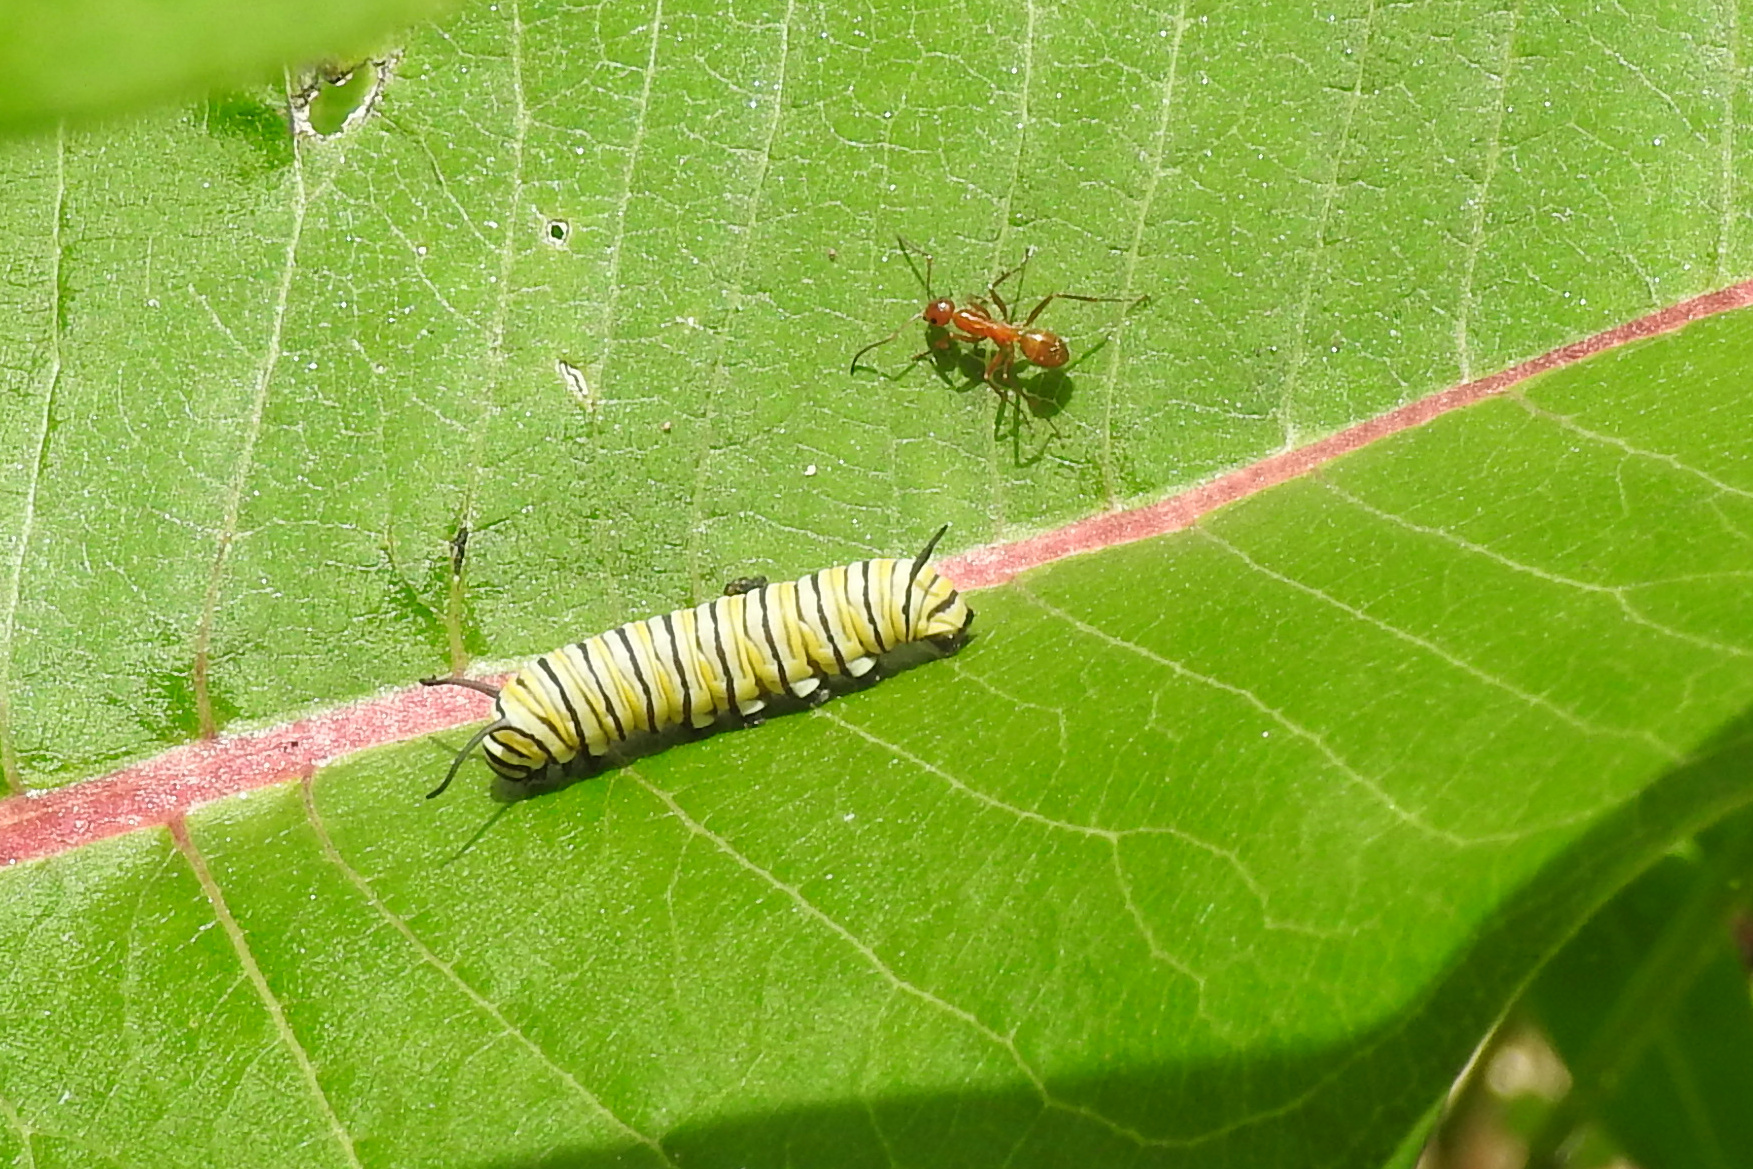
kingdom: Animalia
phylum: Arthropoda
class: Insecta
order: Lepidoptera
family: Nymphalidae
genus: Danaus
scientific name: Danaus plexippus
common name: Monarch
